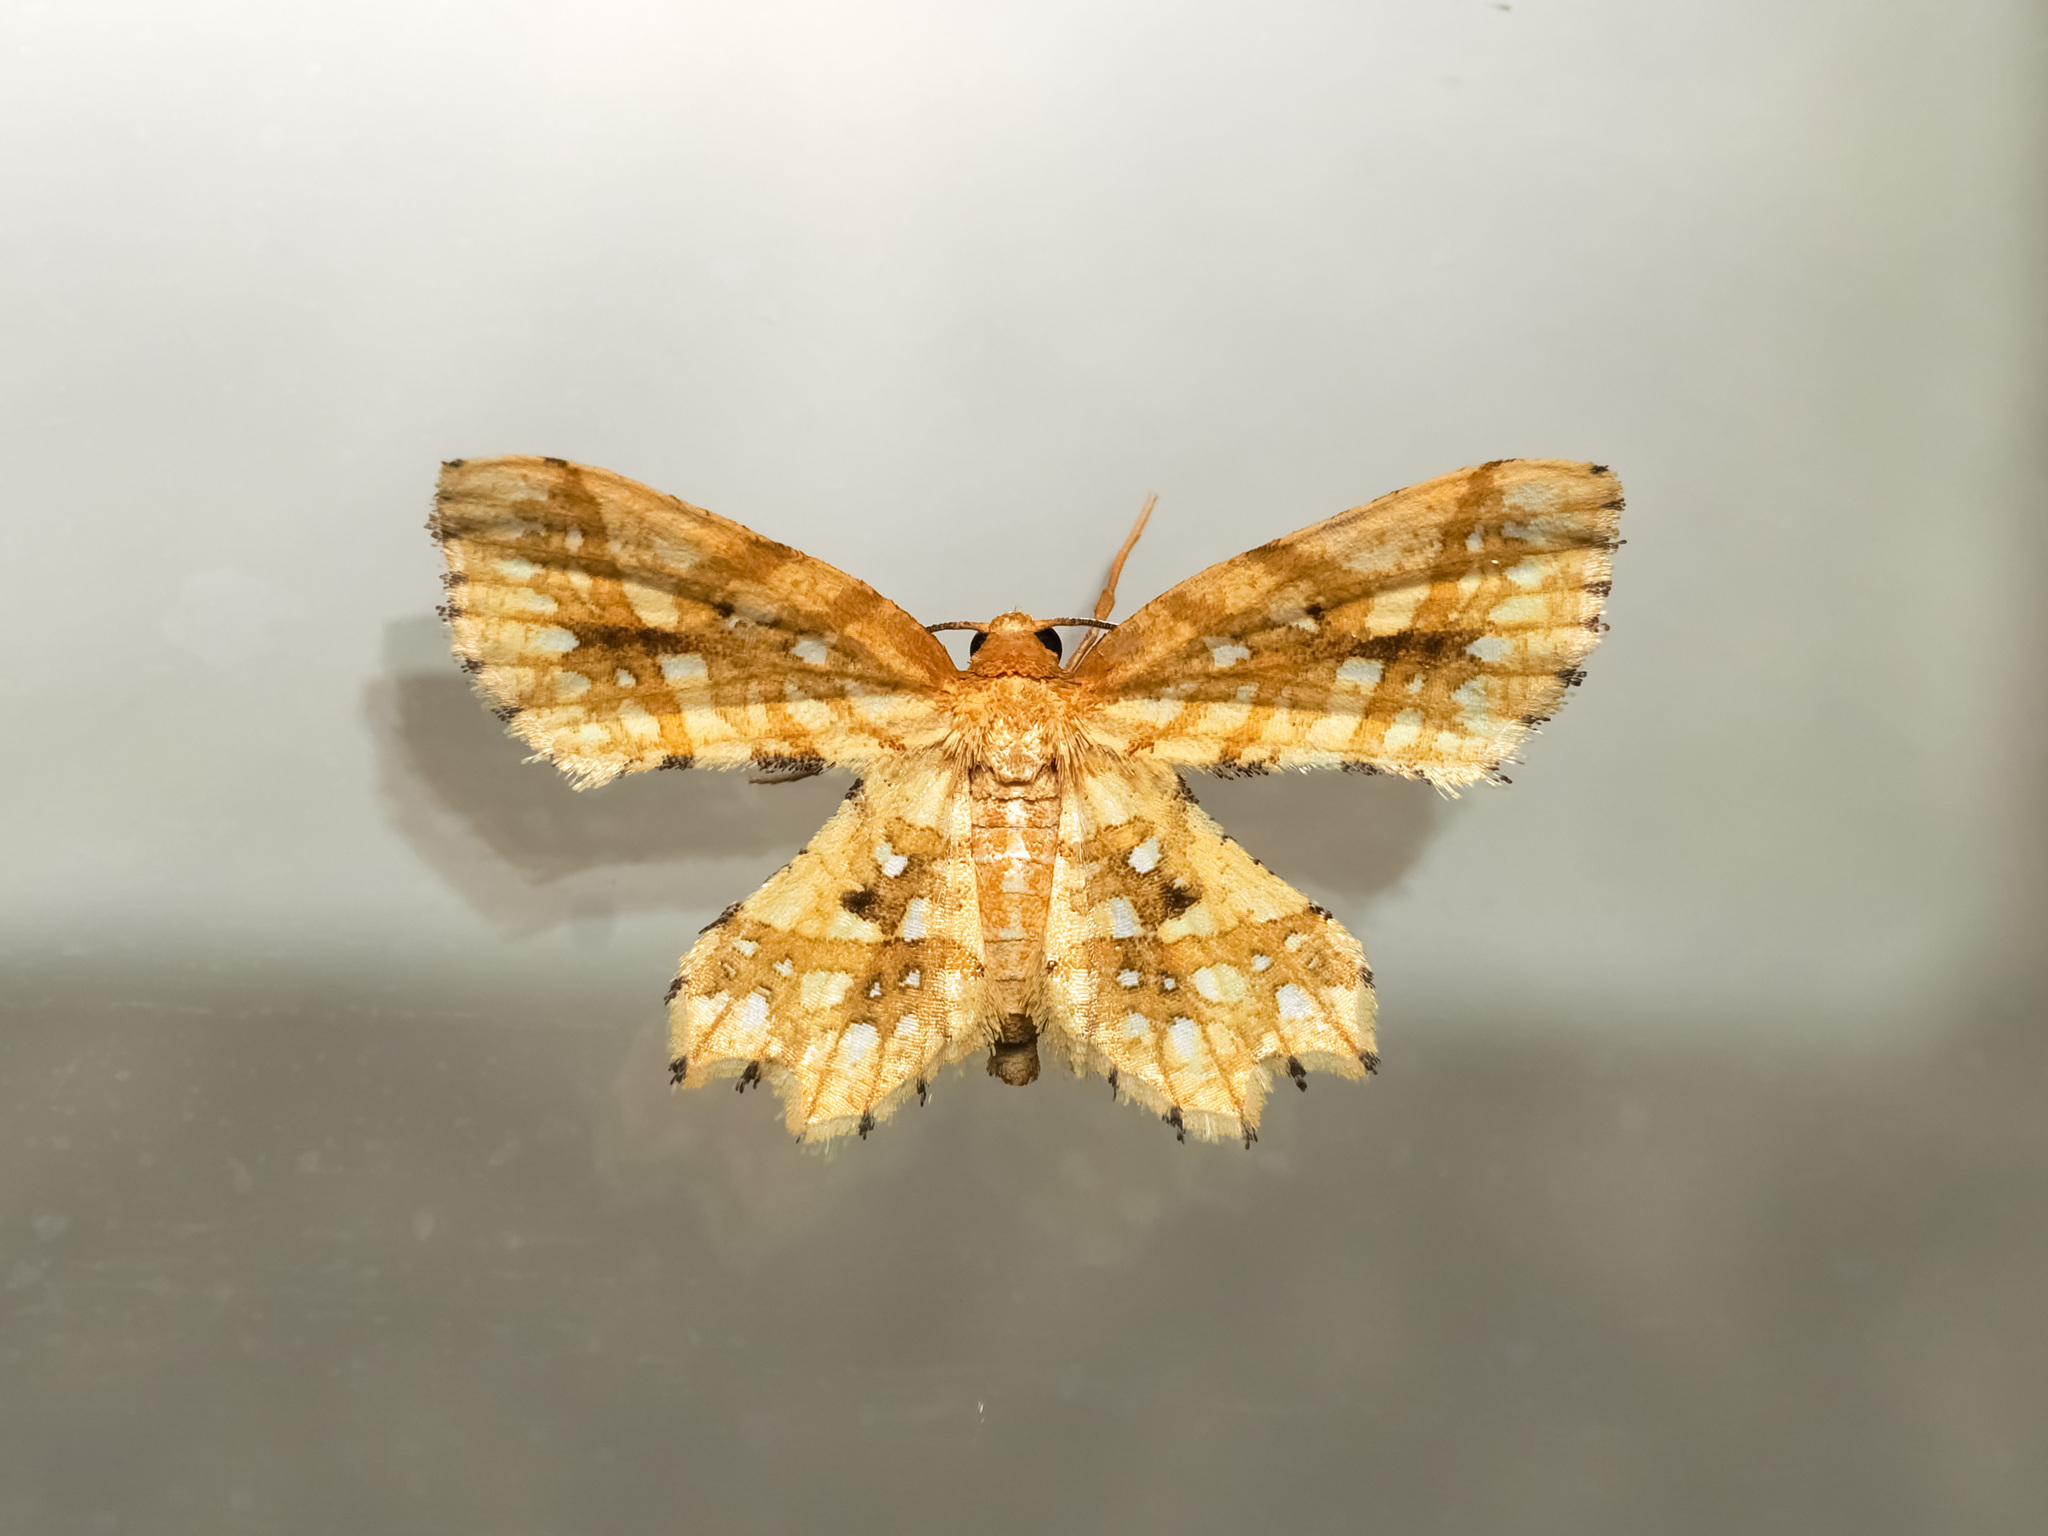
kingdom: Animalia
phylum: Arthropoda
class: Insecta
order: Lepidoptera
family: Geometridae
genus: Fritillerinnys
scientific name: Fritillerinnys clathraria
